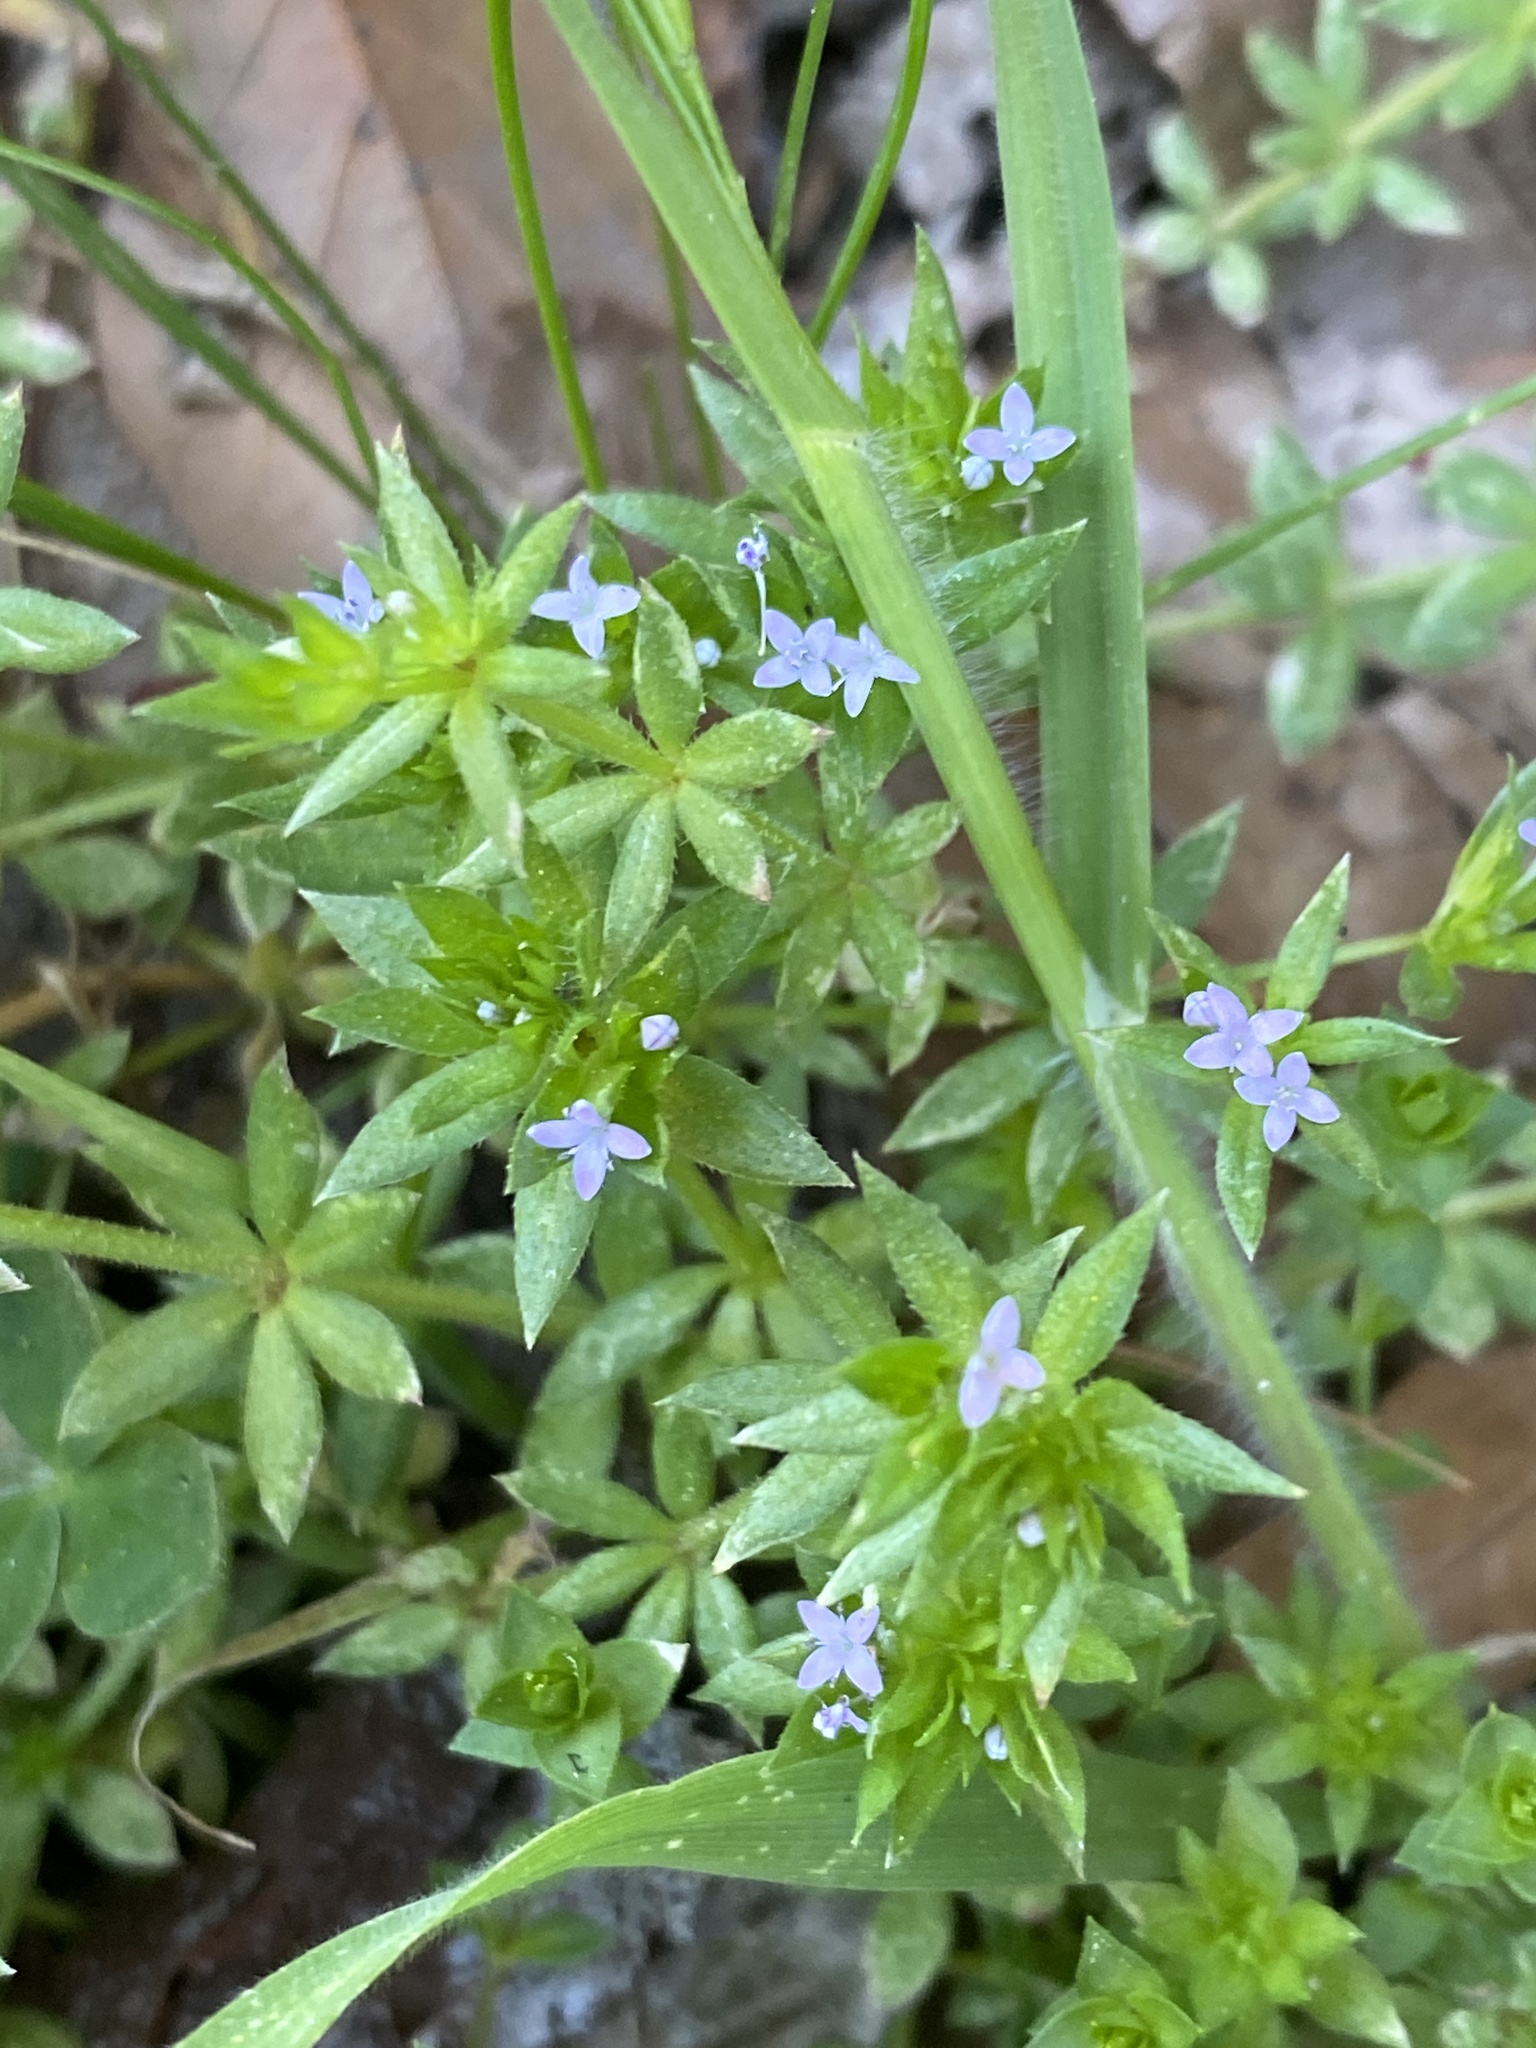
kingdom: Plantae
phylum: Tracheophyta
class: Magnoliopsida
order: Gentianales
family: Rubiaceae
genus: Sherardia
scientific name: Sherardia arvensis
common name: Field madder
